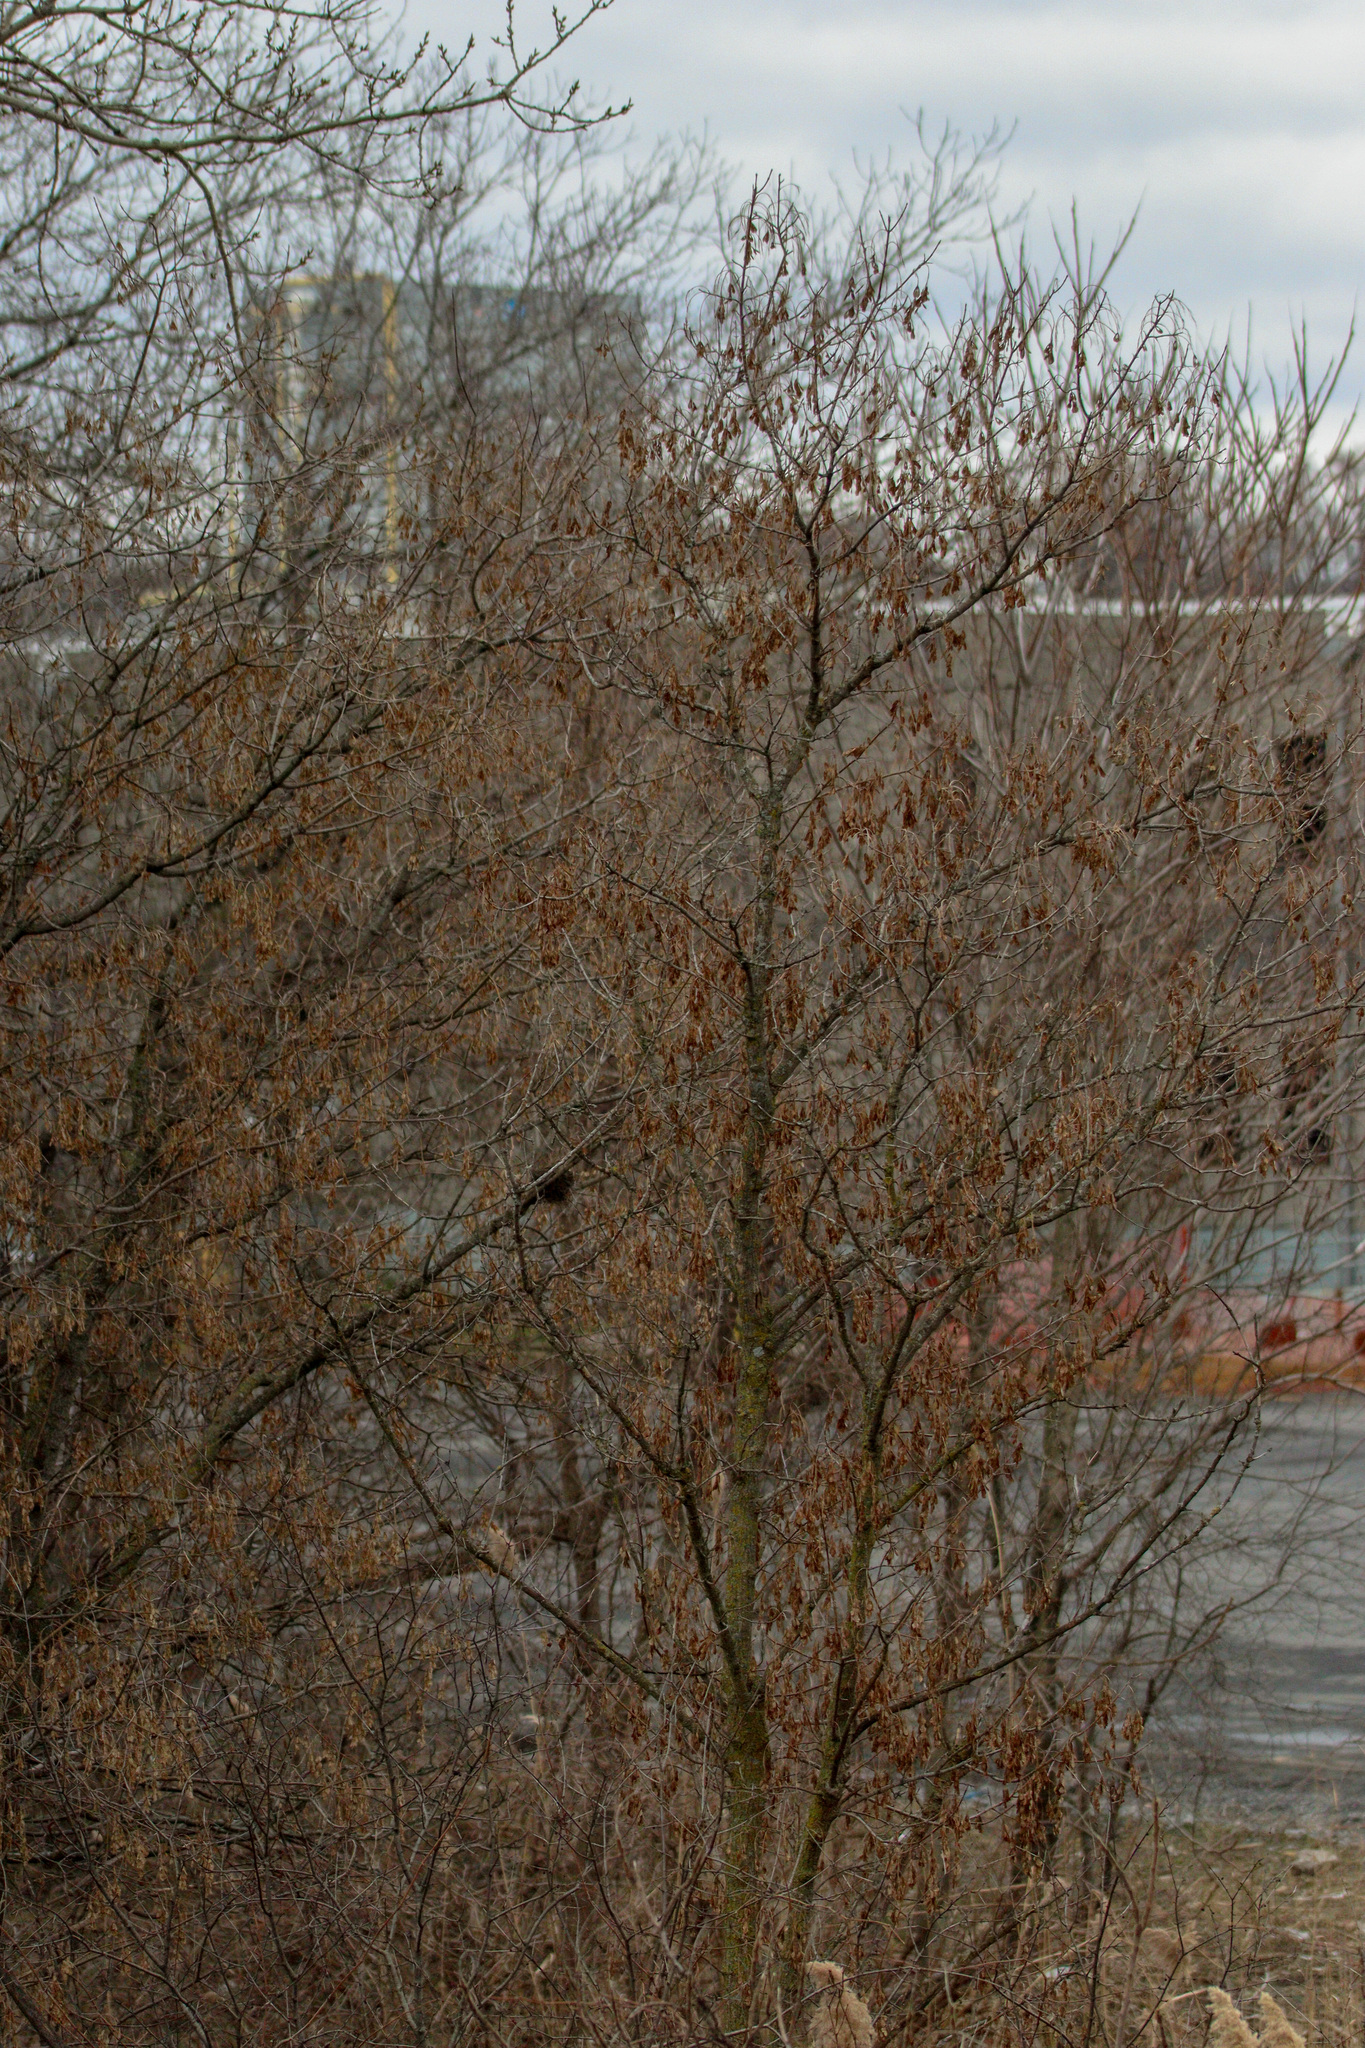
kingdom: Plantae
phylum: Tracheophyta
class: Magnoliopsida
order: Sapindales
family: Sapindaceae
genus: Acer
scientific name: Acer negundo
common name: Ashleaf maple
